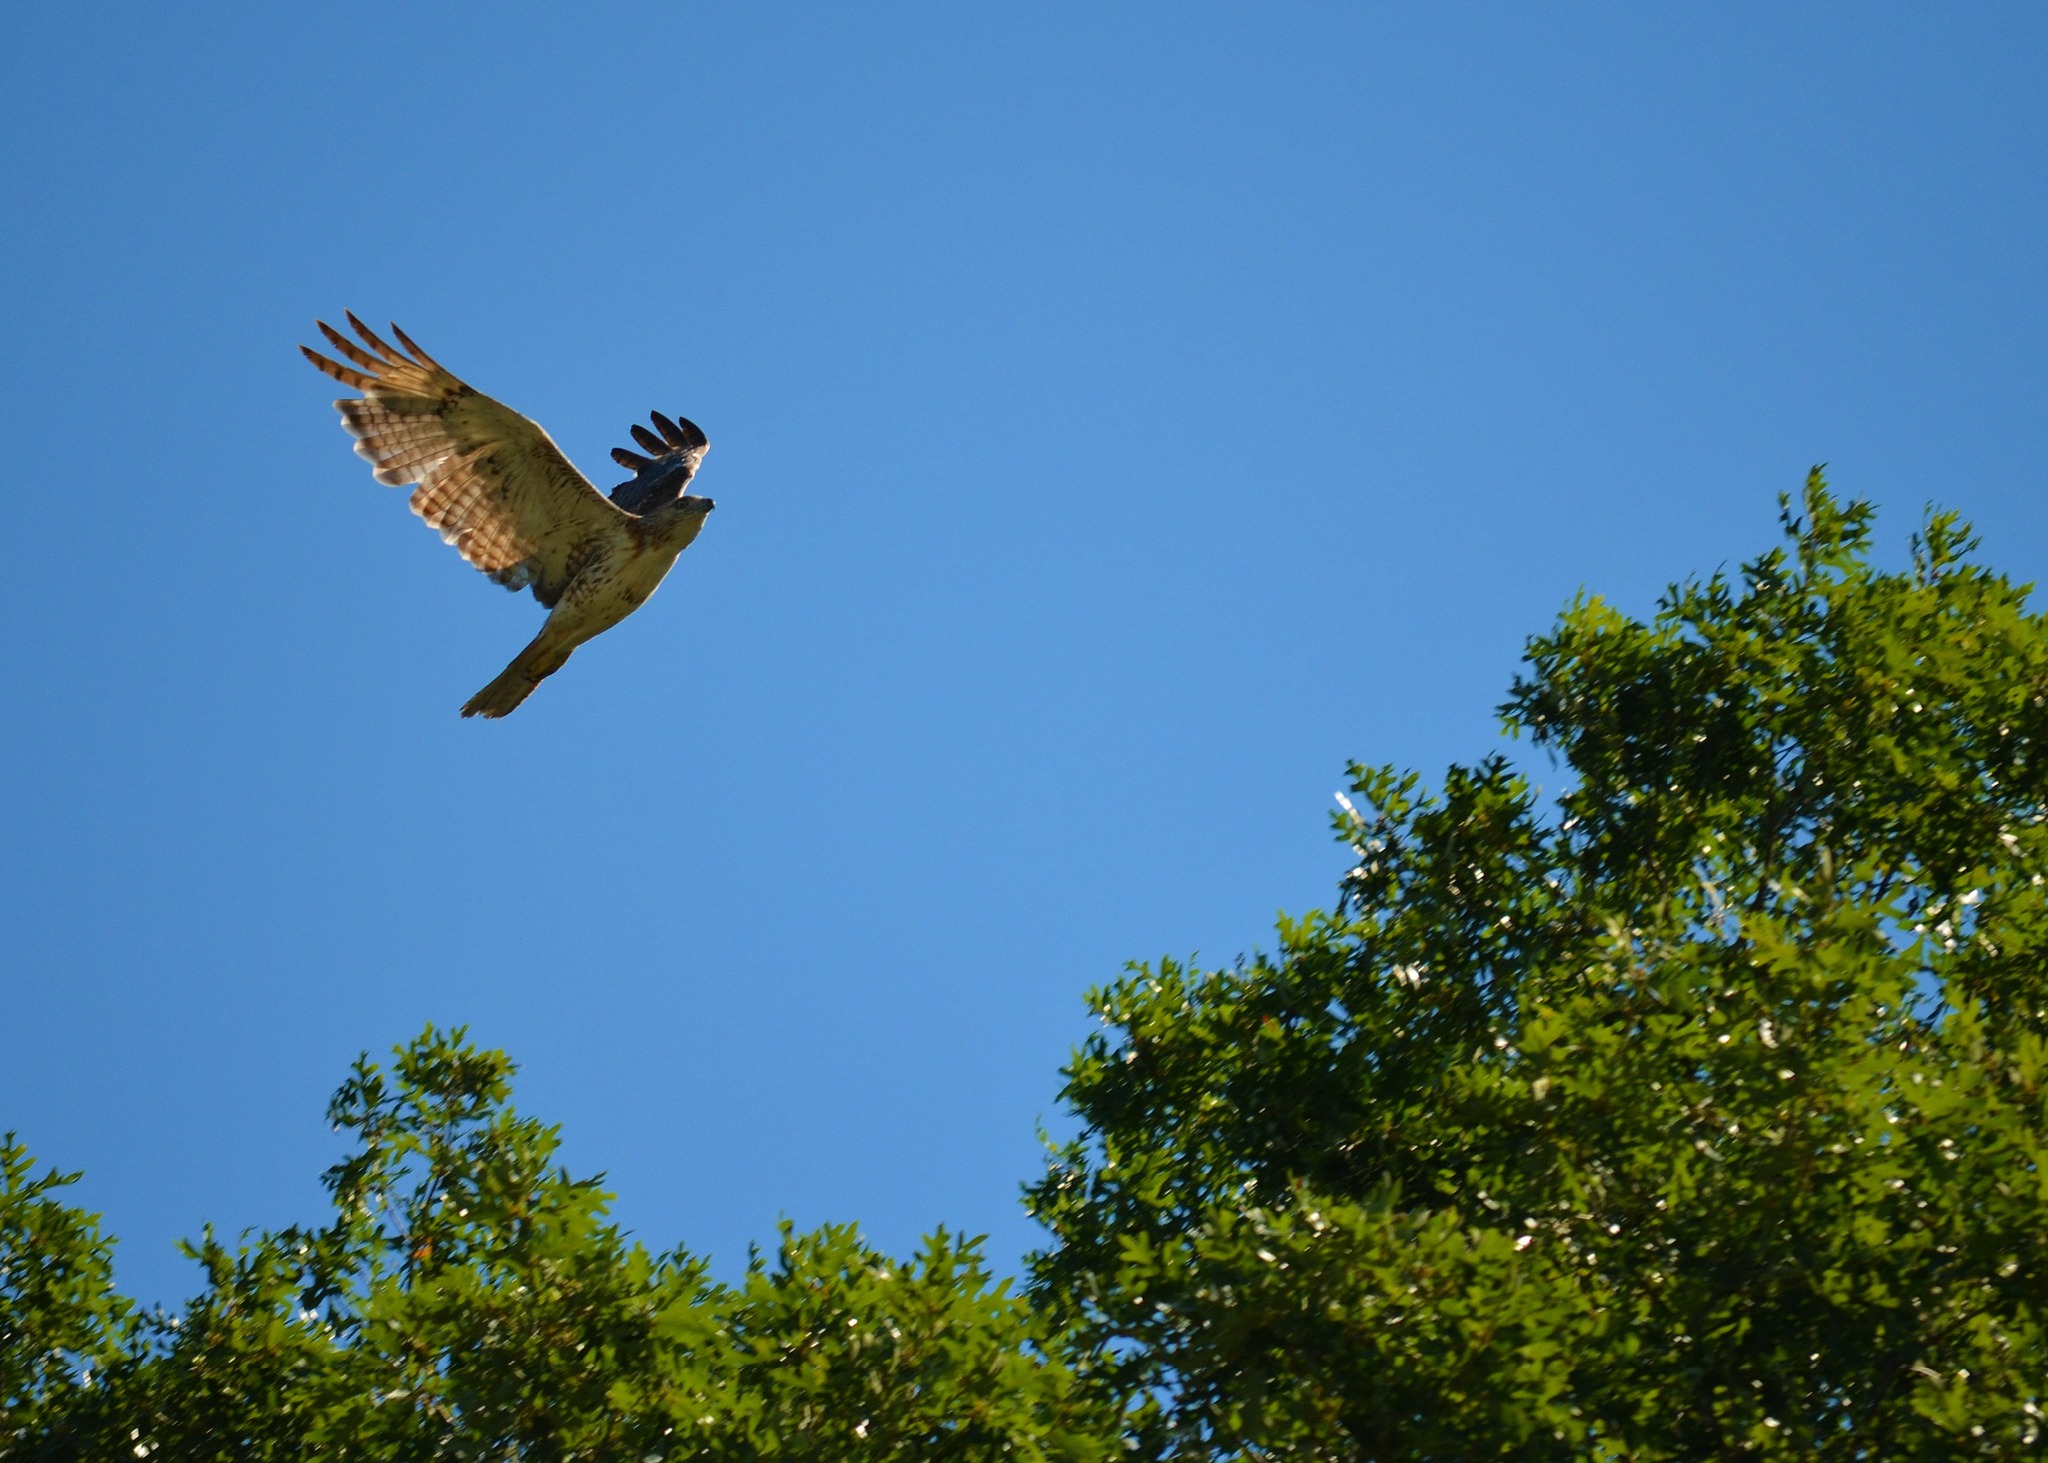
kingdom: Animalia
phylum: Chordata
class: Aves
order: Accipitriformes
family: Accipitridae
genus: Buteo
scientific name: Buteo jamaicensis
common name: Red-tailed hawk
